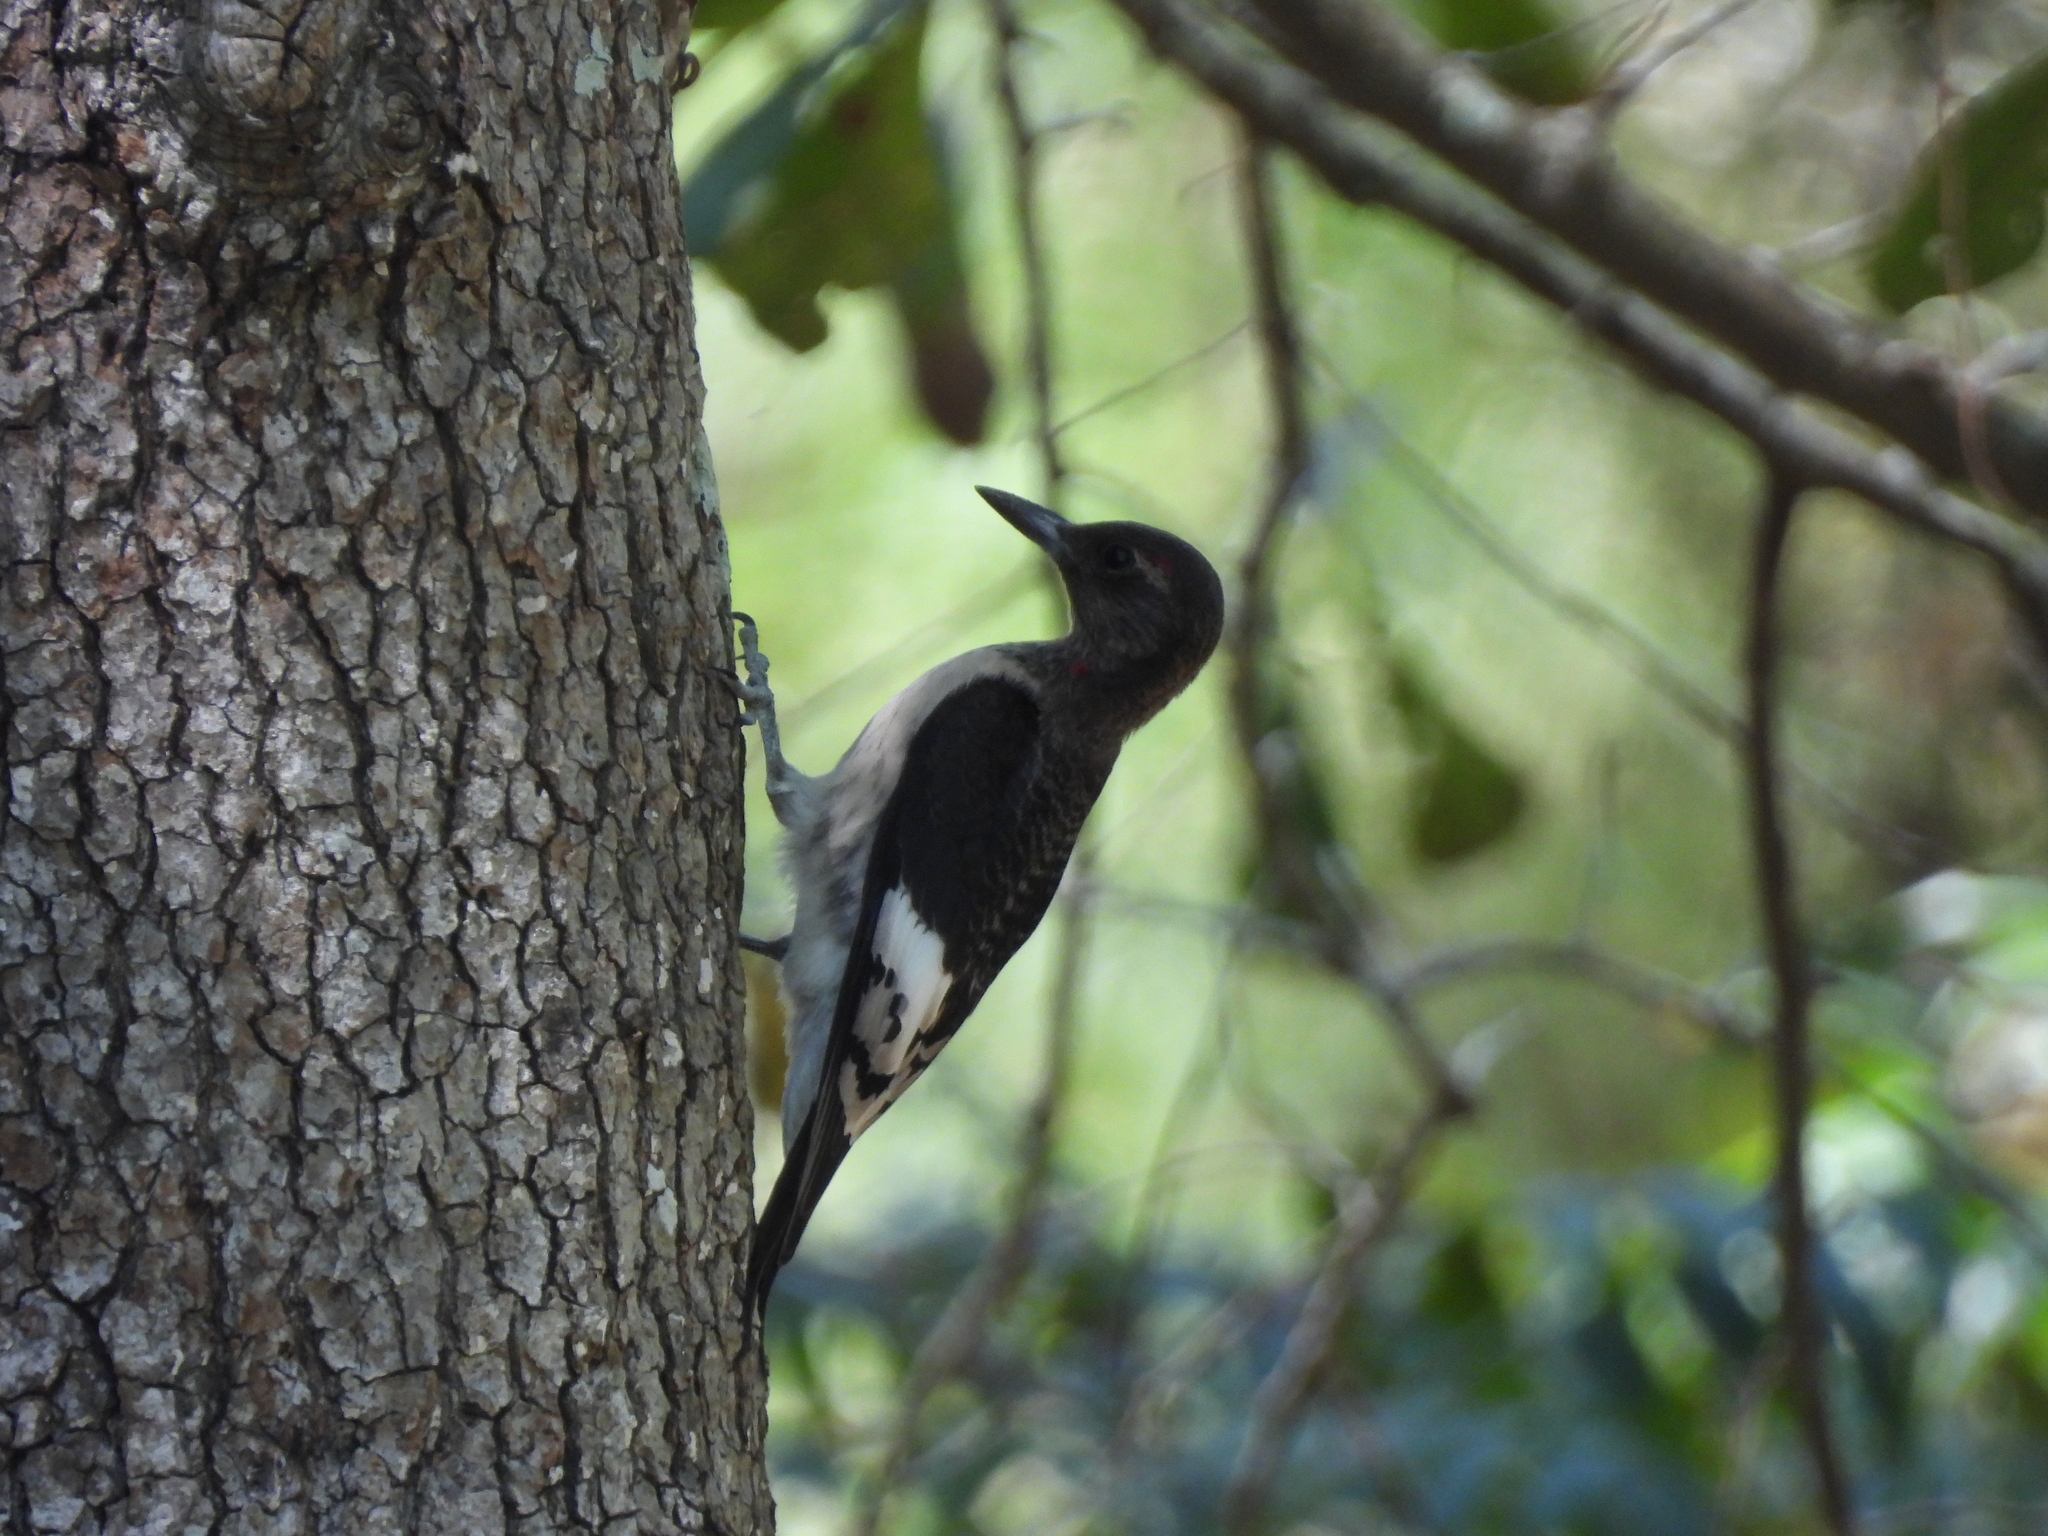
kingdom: Animalia
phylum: Chordata
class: Aves
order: Piciformes
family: Picidae
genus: Melanerpes
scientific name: Melanerpes erythrocephalus
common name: Red-headed woodpecker
